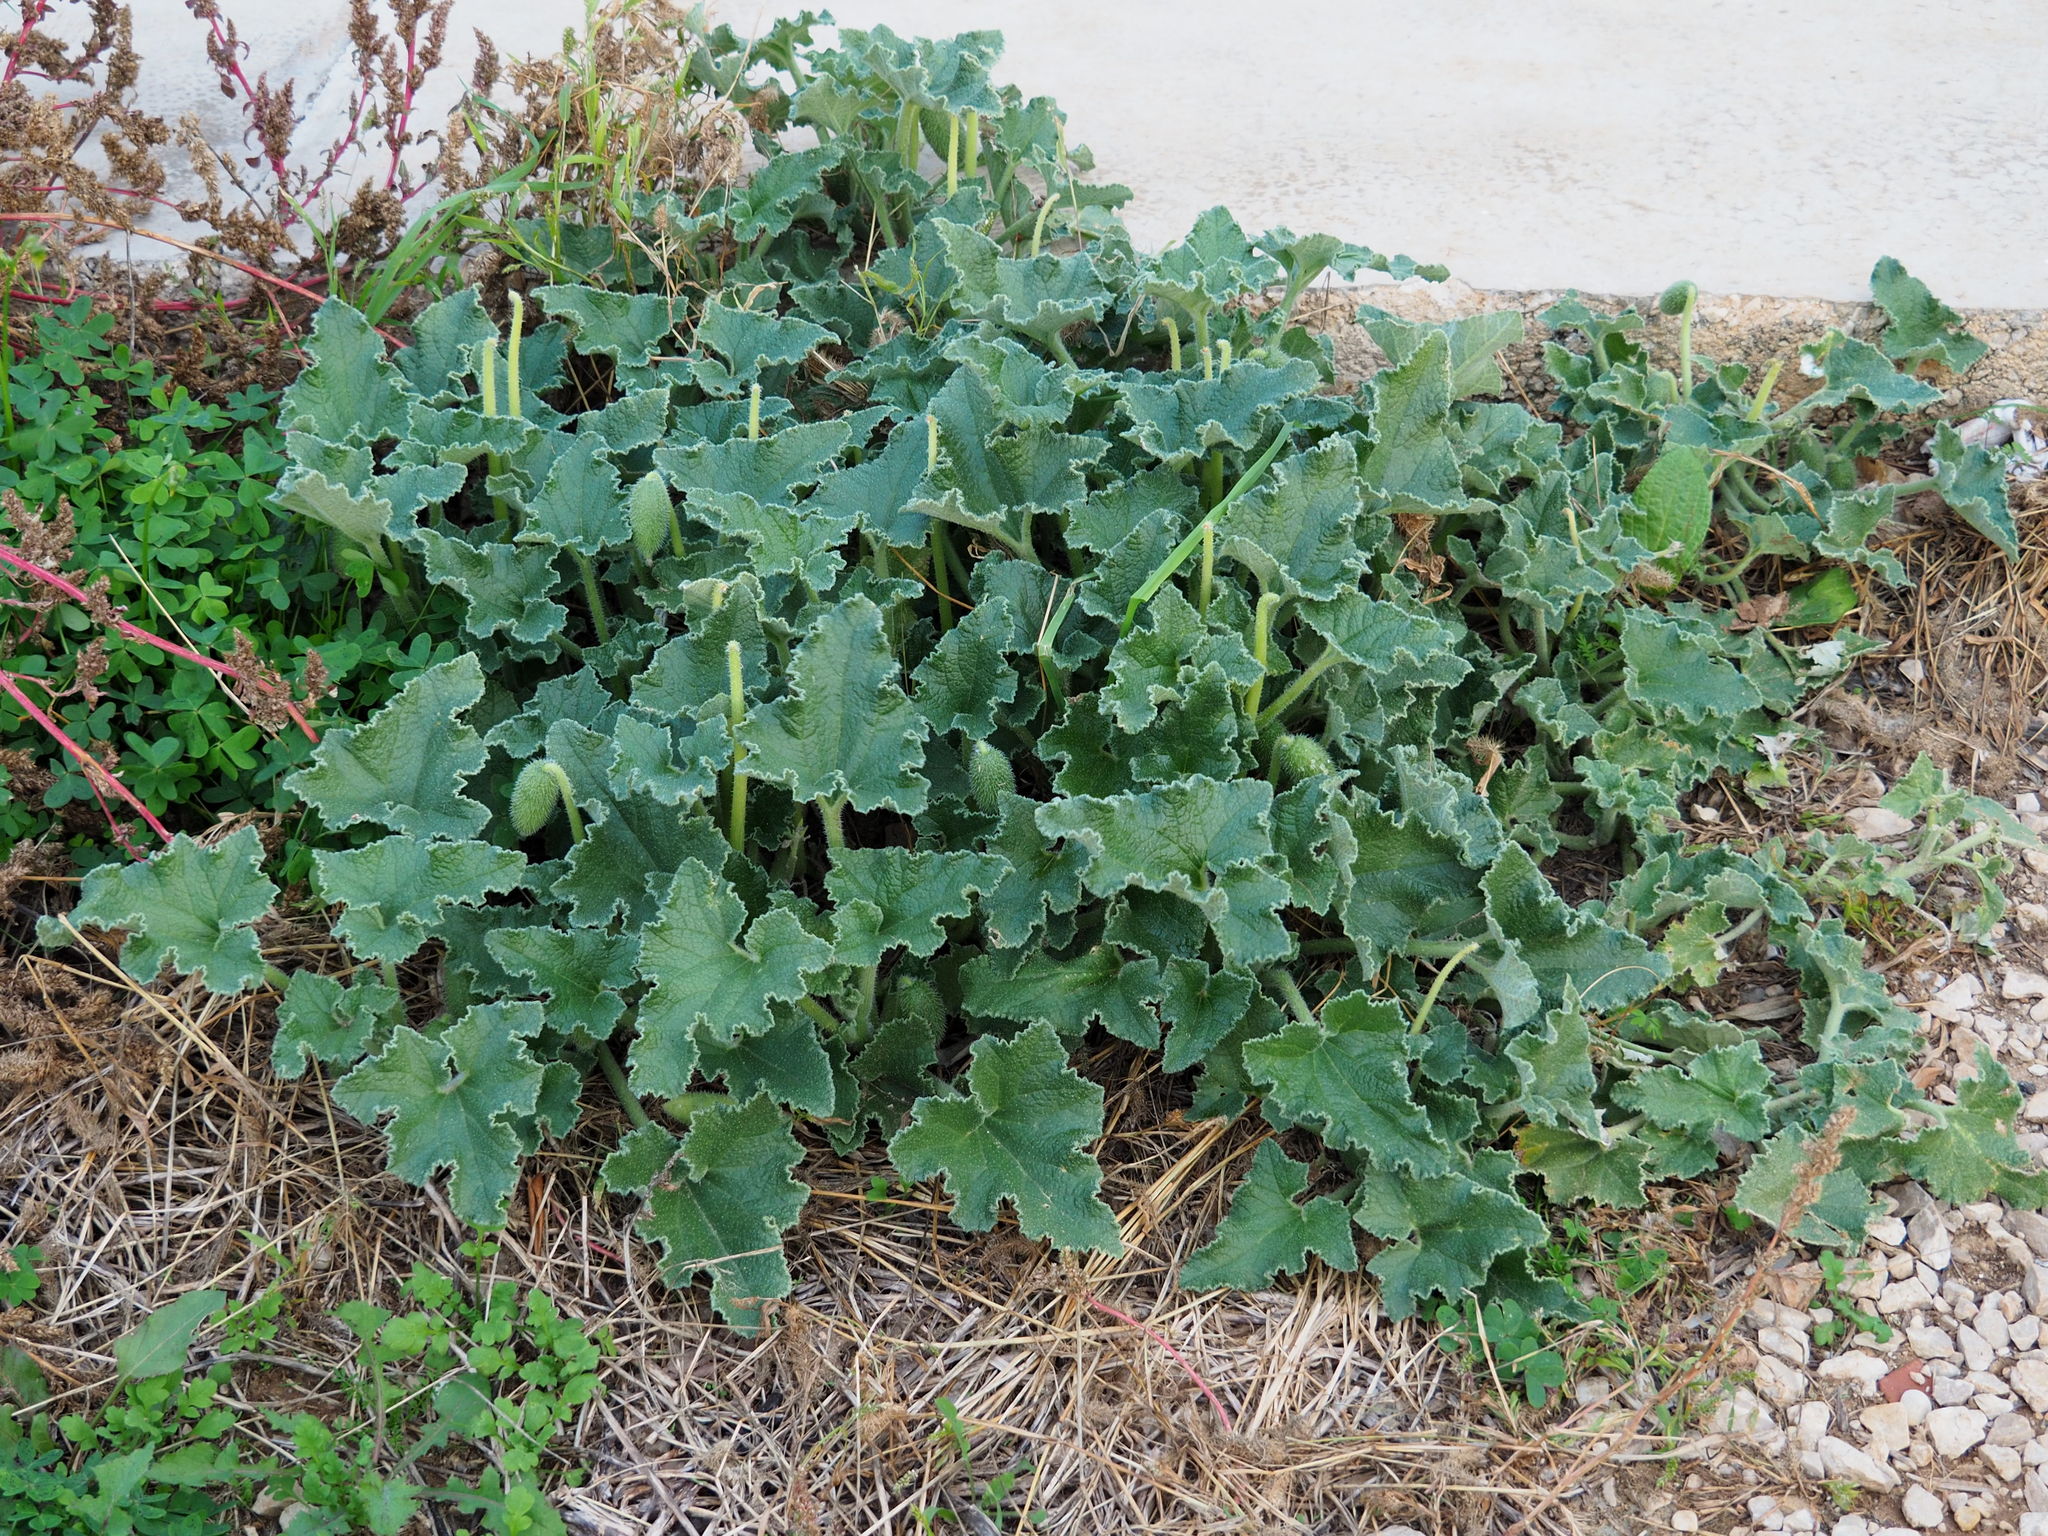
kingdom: Plantae
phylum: Tracheophyta
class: Magnoliopsida
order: Cucurbitales
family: Cucurbitaceae
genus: Ecballium
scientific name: Ecballium elaterium
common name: Squirting cucumber
